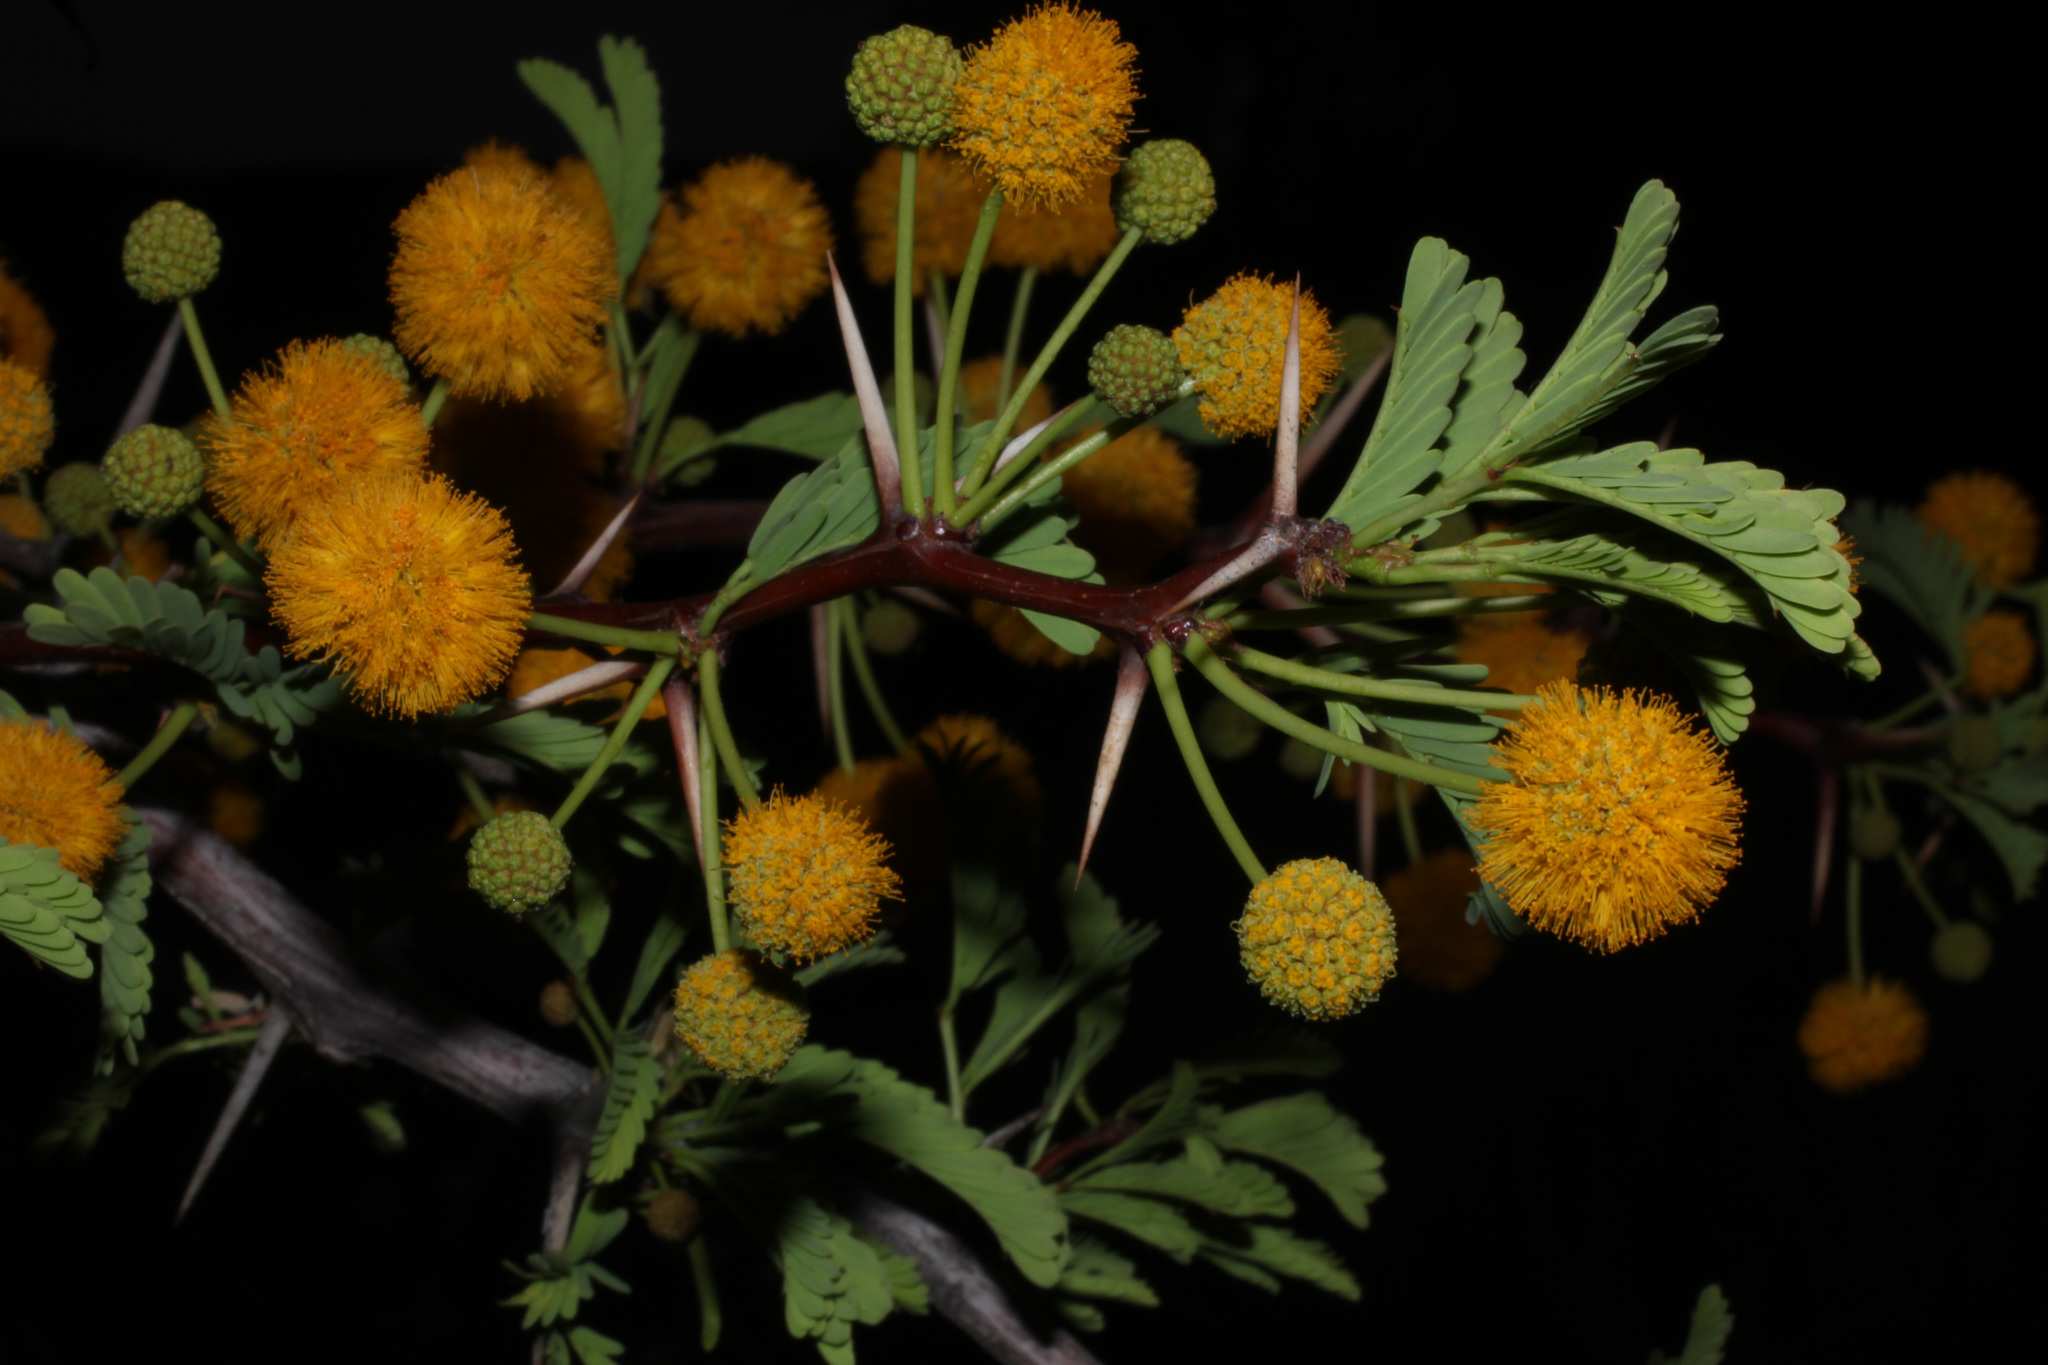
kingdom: Plantae
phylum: Tracheophyta
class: Magnoliopsida
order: Fabales
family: Fabaceae
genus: Vachellia
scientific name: Vachellia erioloba
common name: Camel thorn
